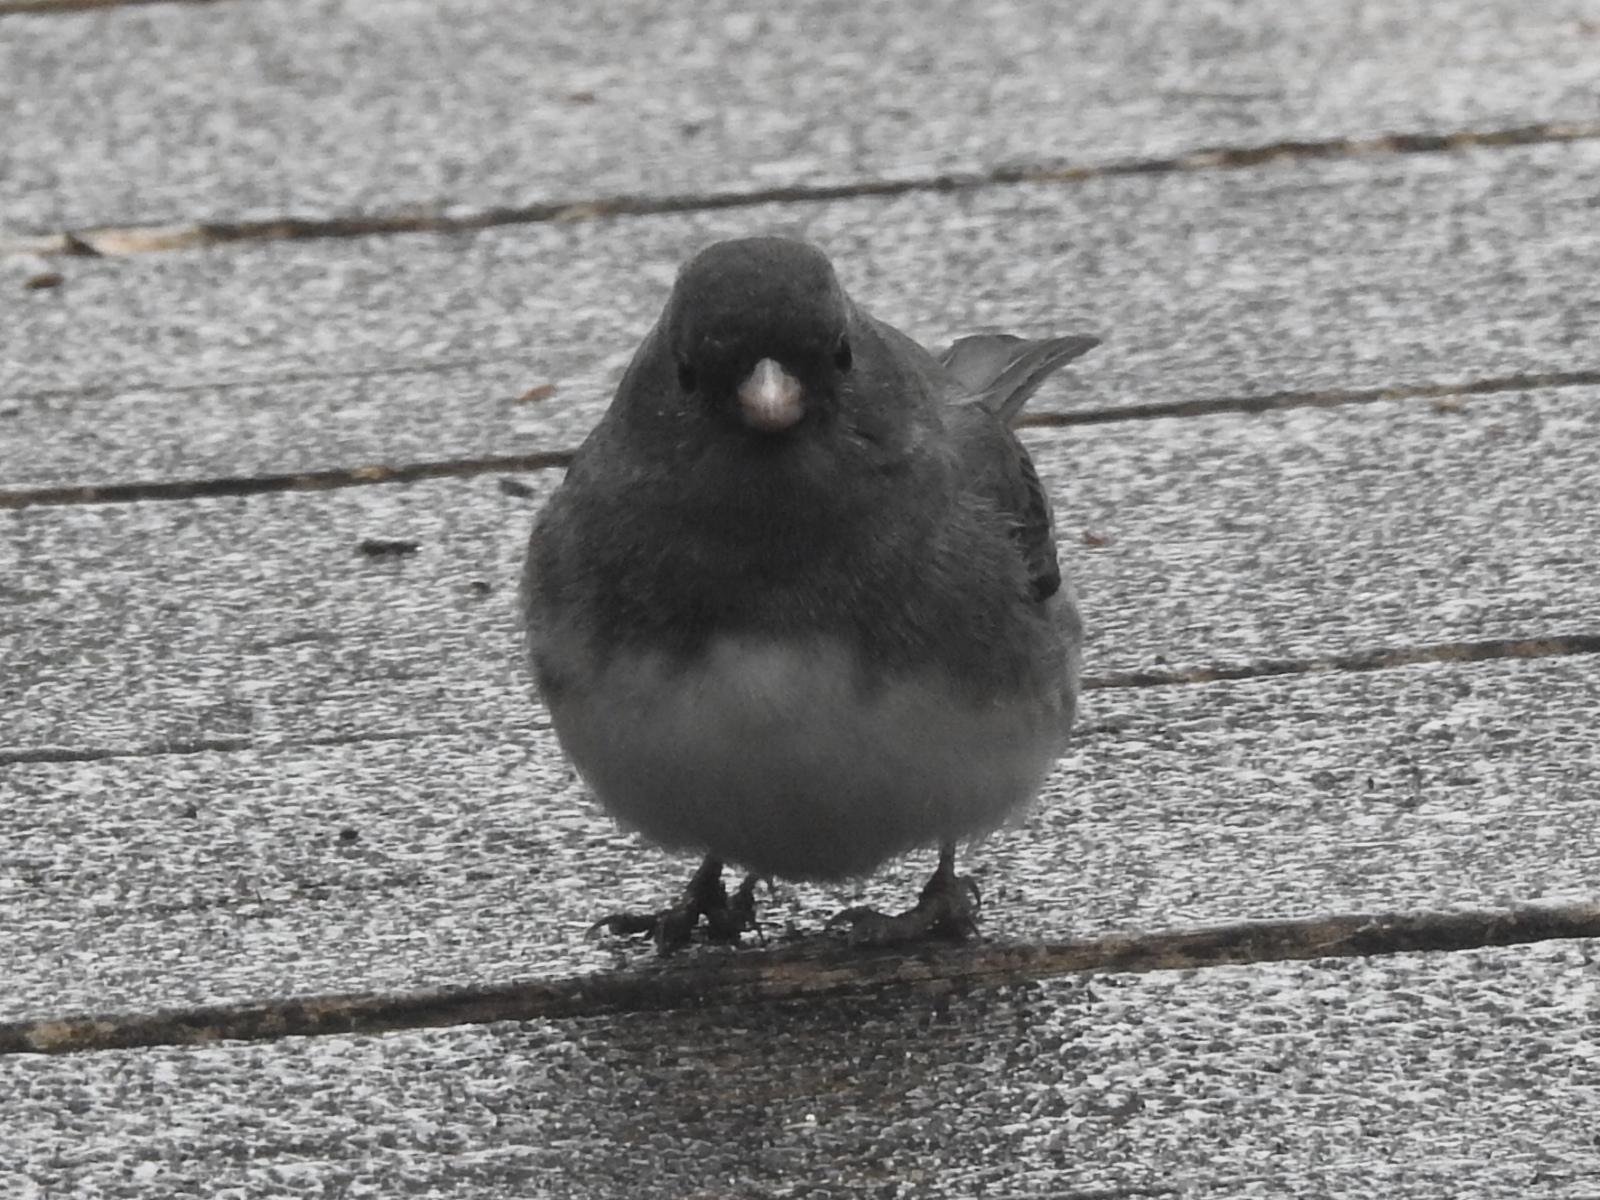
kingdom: Animalia
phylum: Chordata
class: Aves
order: Passeriformes
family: Passerellidae
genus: Junco
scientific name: Junco hyemalis
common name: Dark-eyed junco
